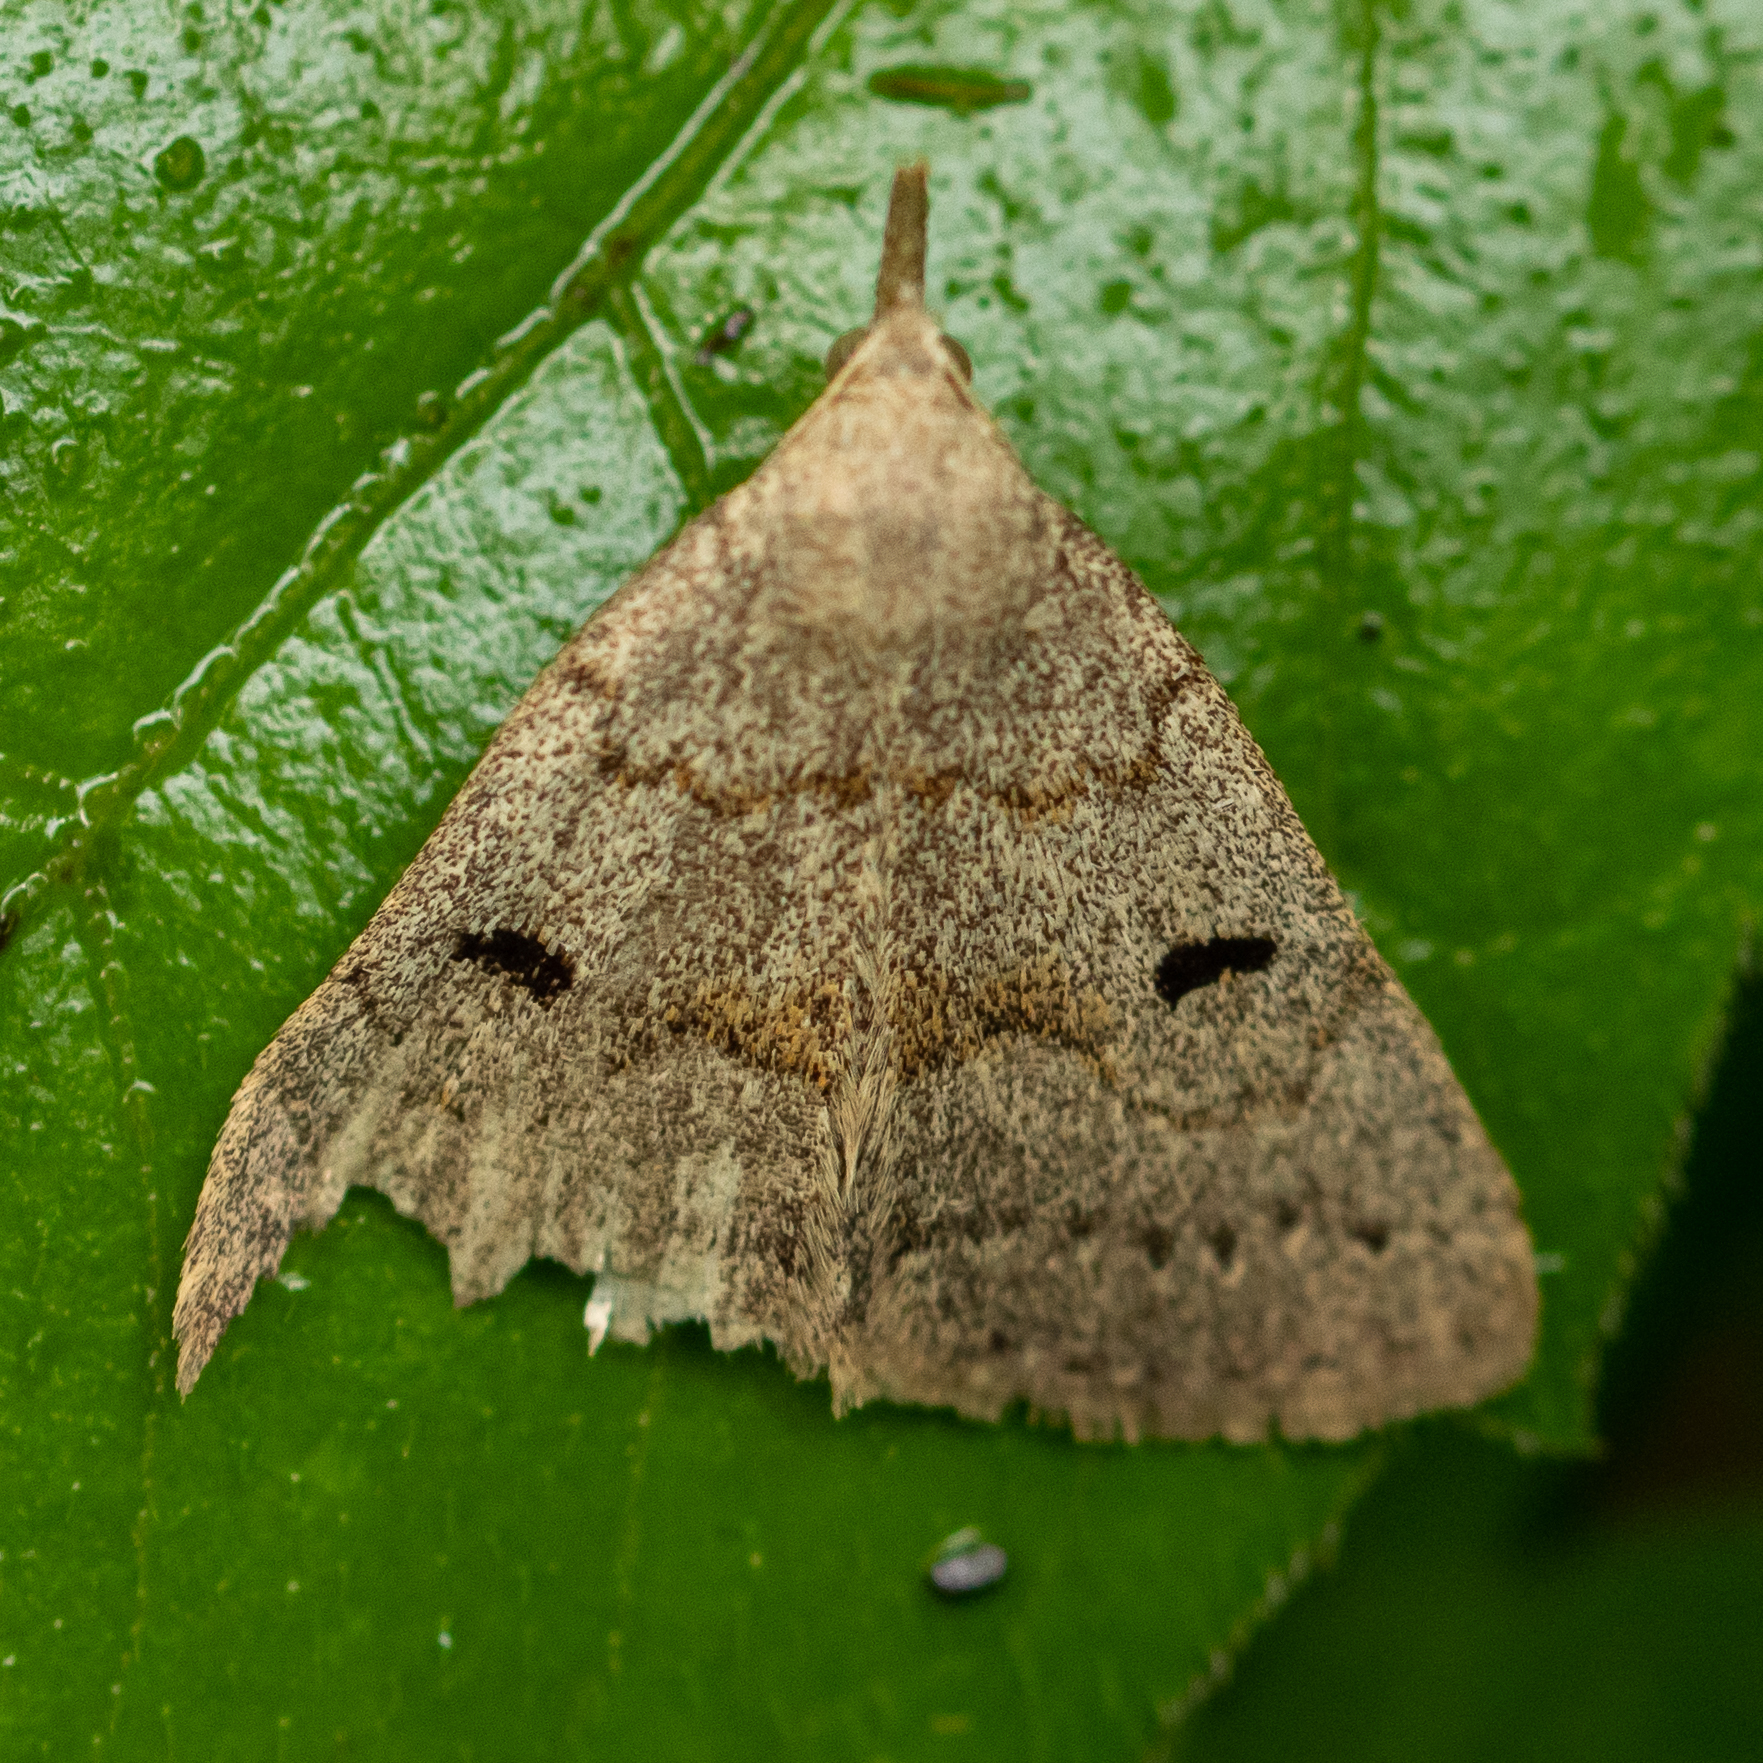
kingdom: Animalia
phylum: Arthropoda
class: Insecta
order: Lepidoptera
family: Erebidae
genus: Macrochilo
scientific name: Macrochilo morbidalis
